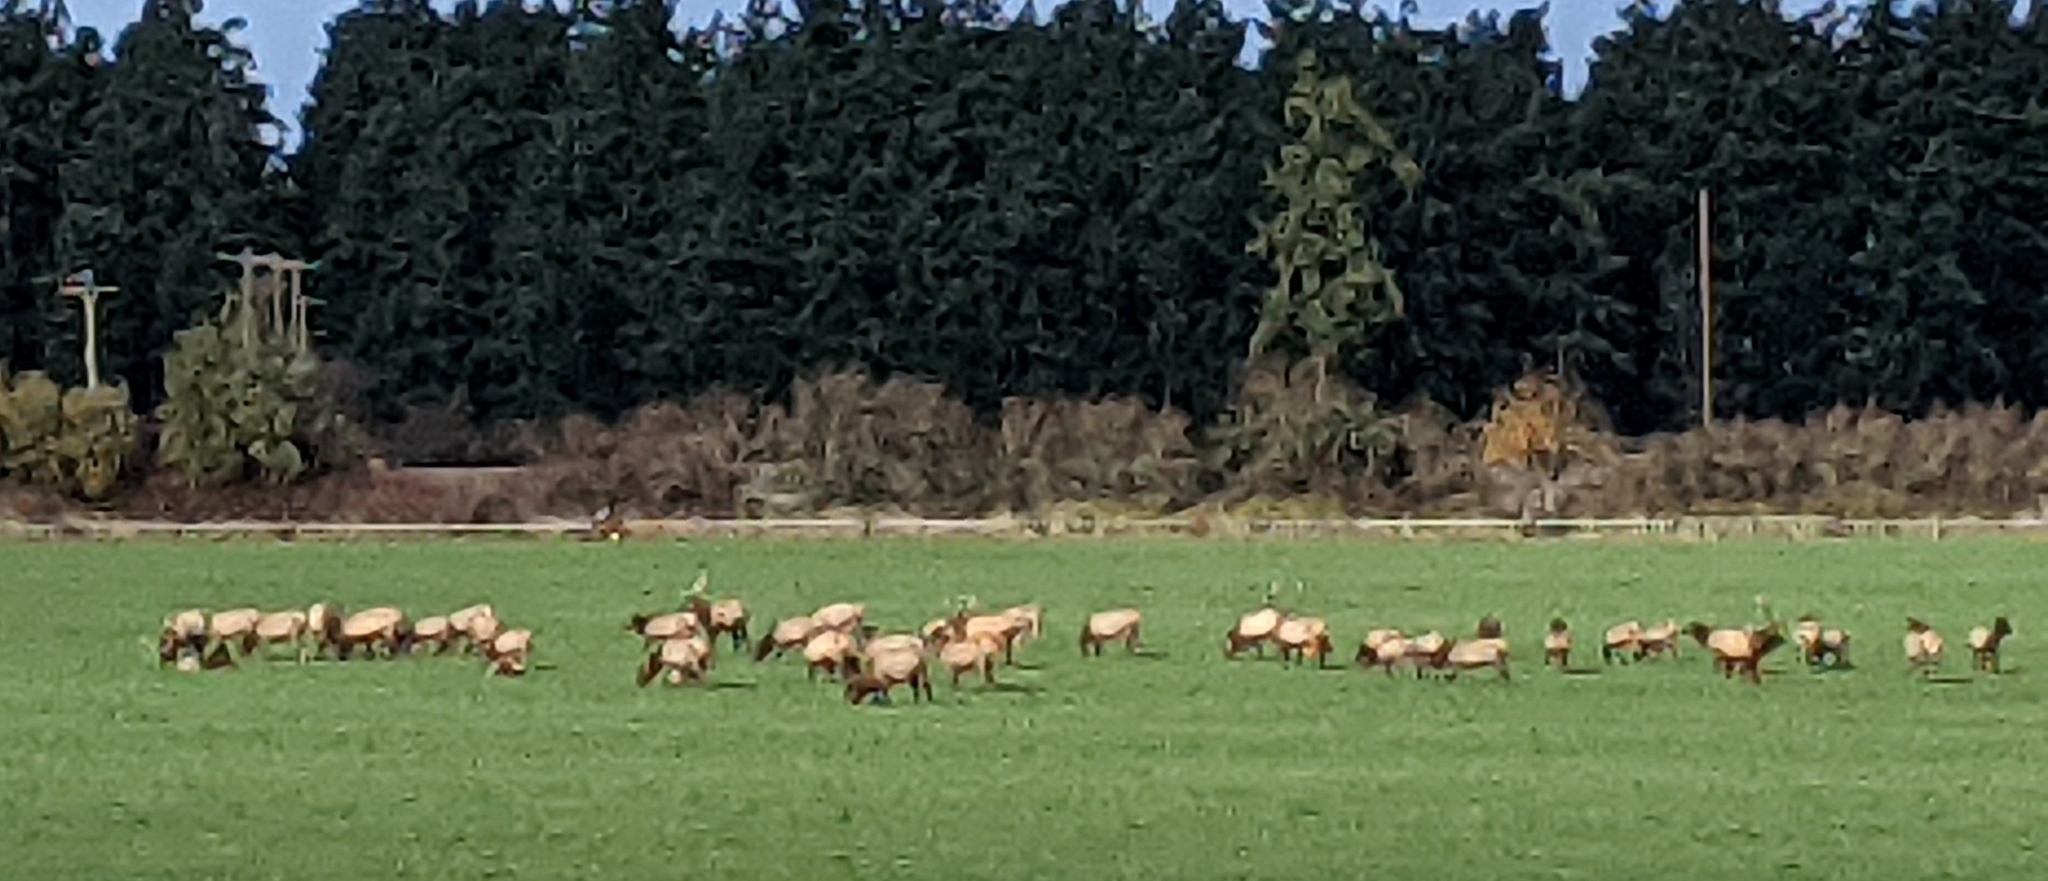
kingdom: Animalia
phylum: Chordata
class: Mammalia
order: Artiodactyla
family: Cervidae
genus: Cervus
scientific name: Cervus elaphus
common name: Red deer
